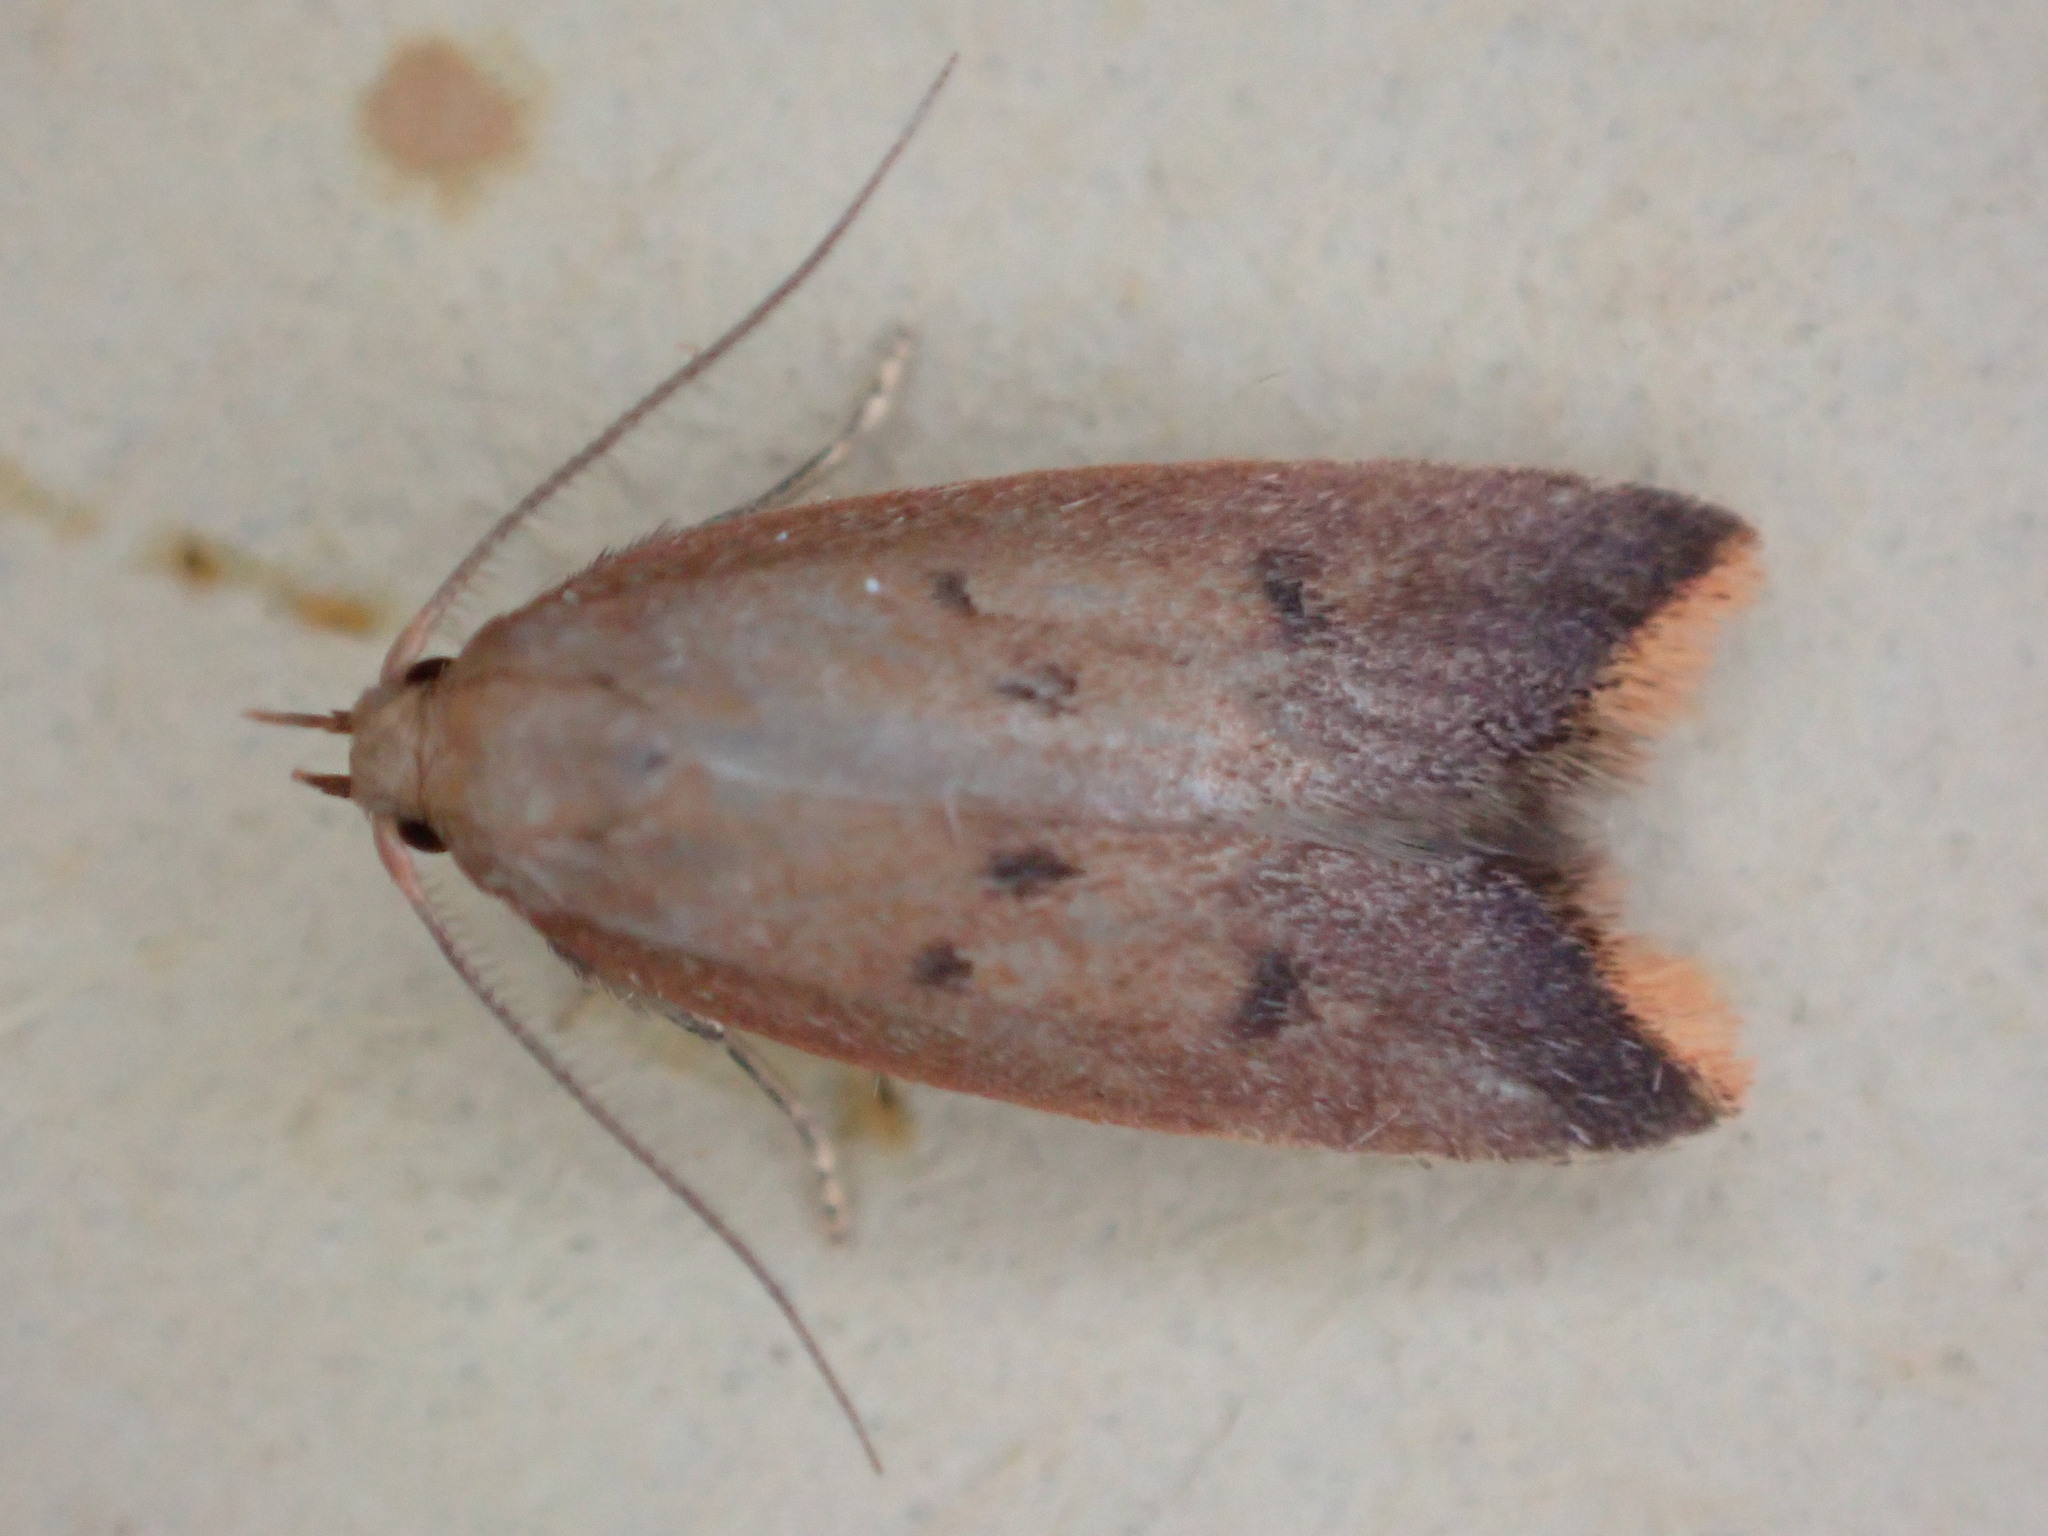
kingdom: Animalia
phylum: Arthropoda
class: Insecta
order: Lepidoptera
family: Oecophoridae
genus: Tachystola
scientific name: Tachystola acroxantha
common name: Ruddy streak
